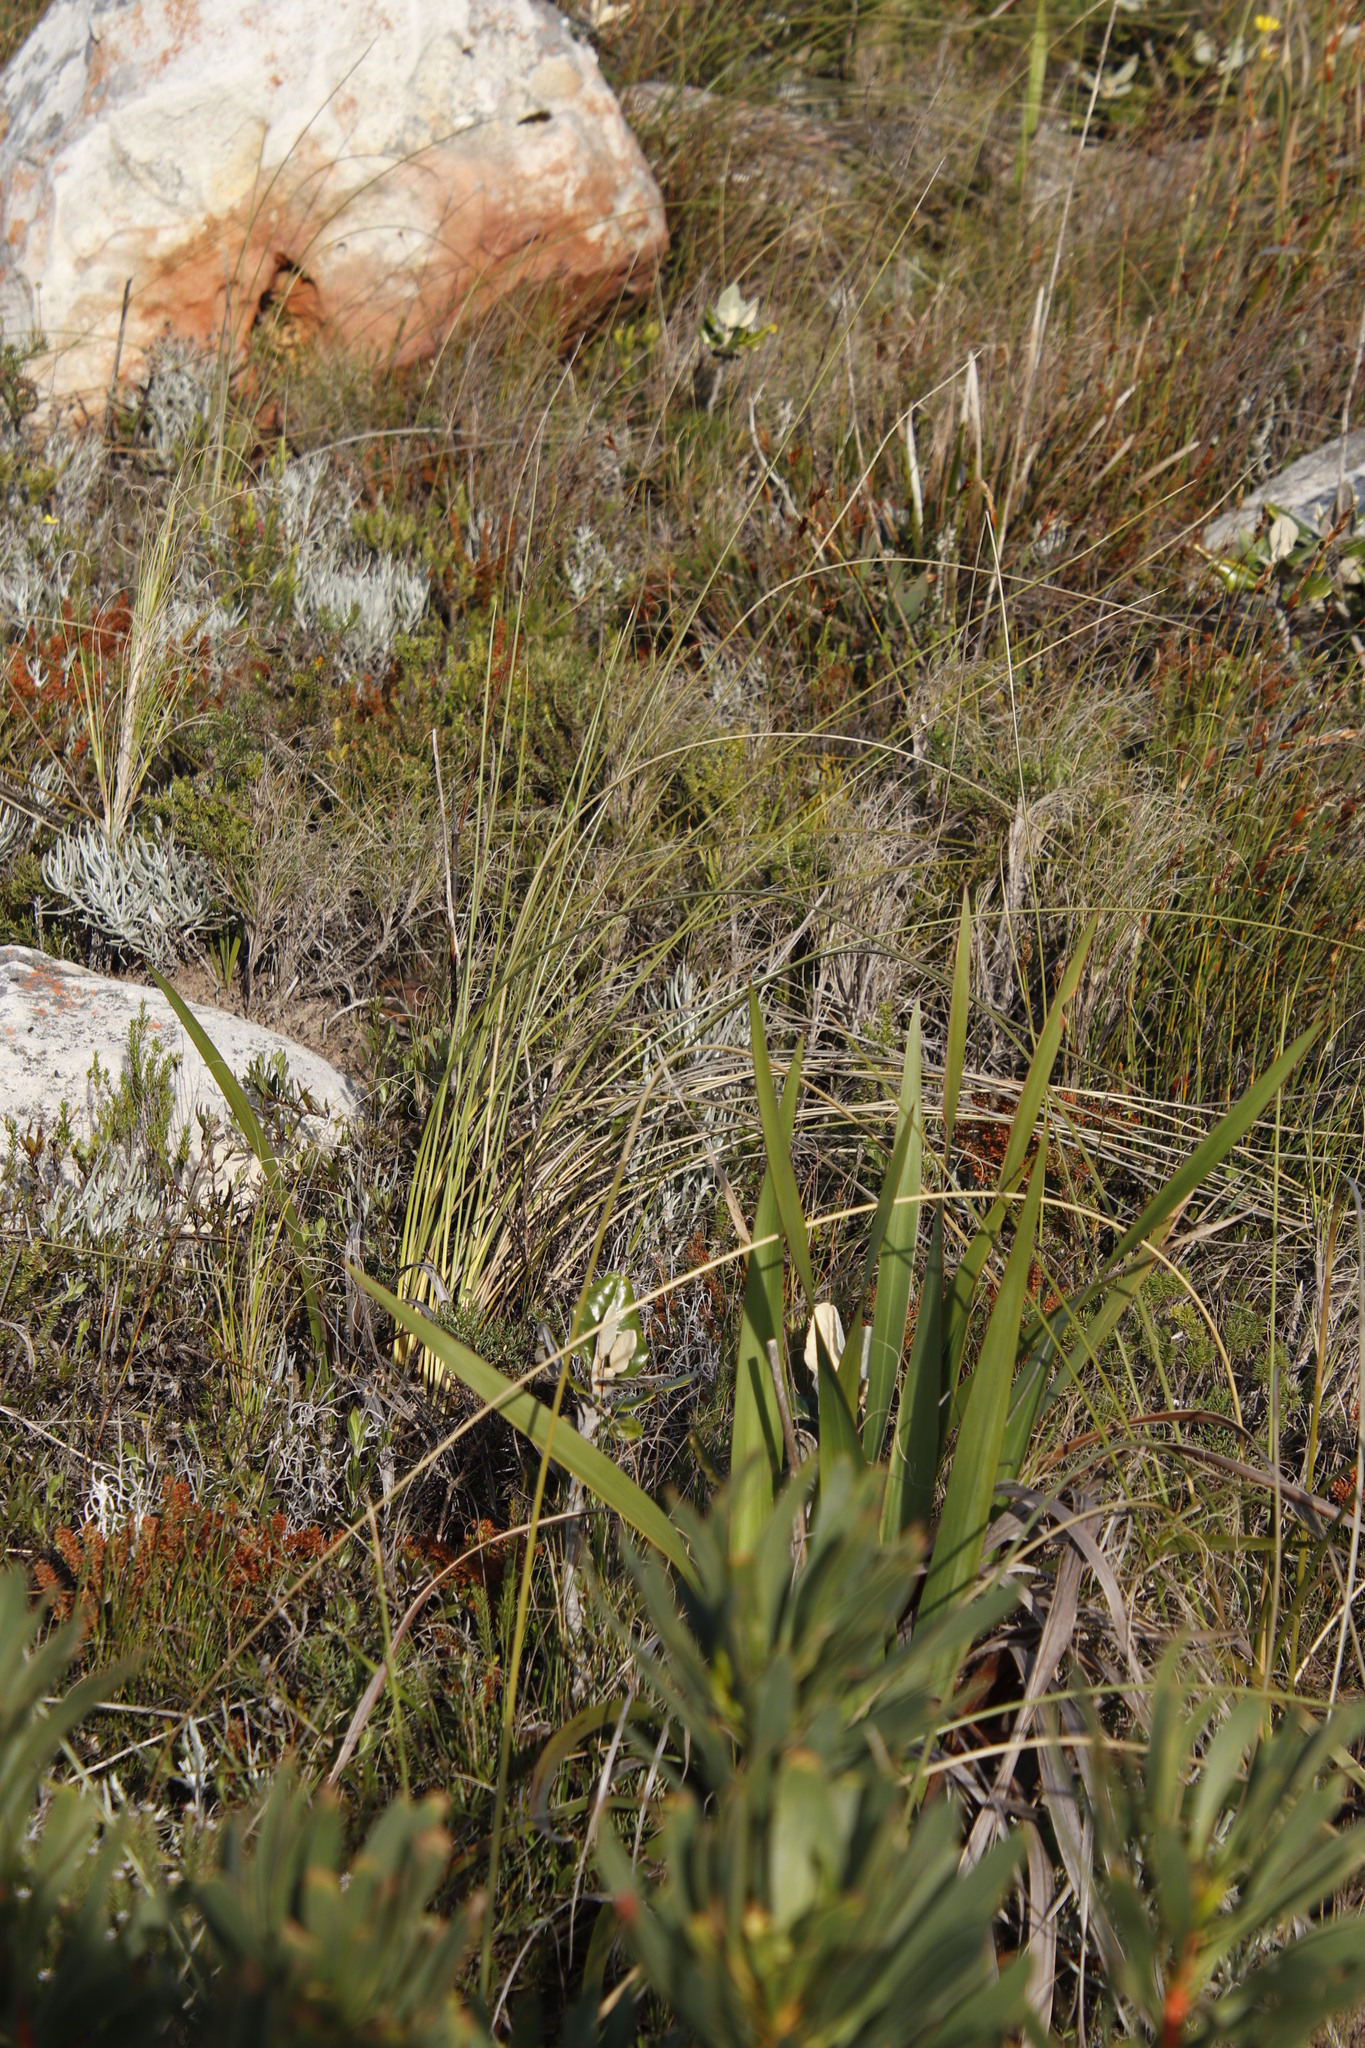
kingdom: Plantae
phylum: Tracheophyta
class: Liliopsida
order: Asparagales
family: Iridaceae
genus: Bobartia
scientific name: Bobartia indica
